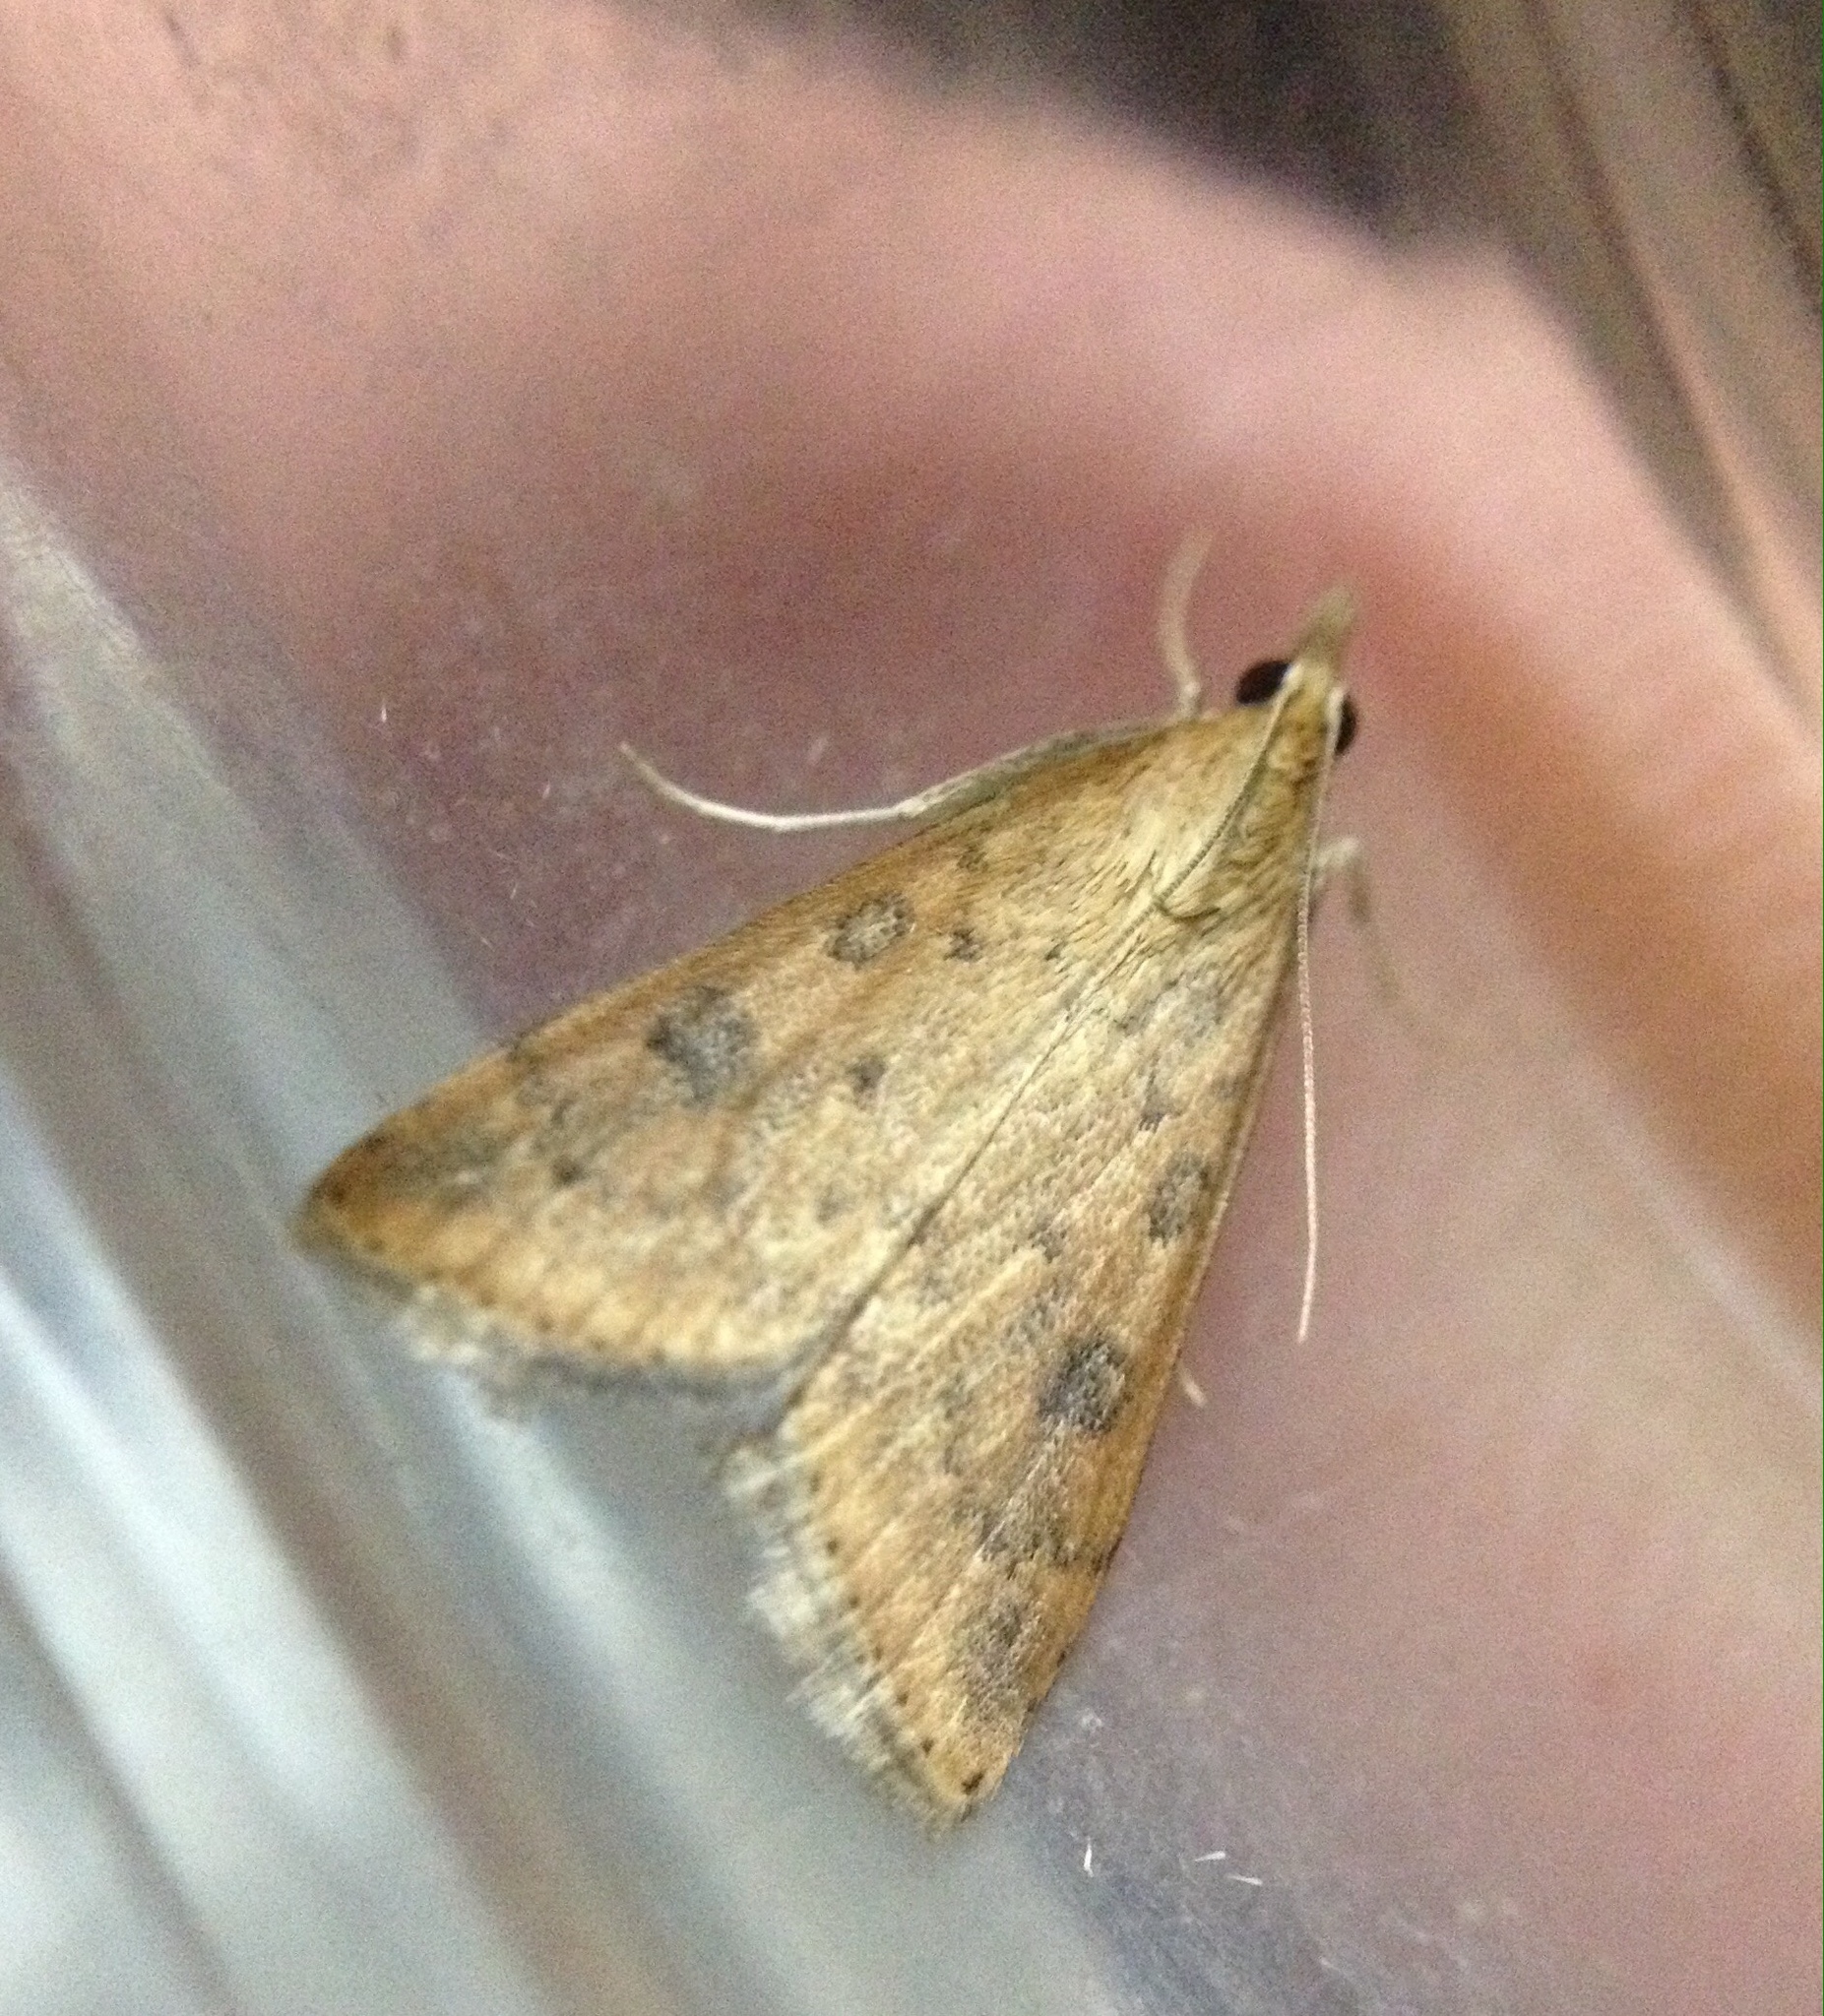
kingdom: Animalia
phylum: Arthropoda
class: Insecta
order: Lepidoptera
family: Crambidae
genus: Udea
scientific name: Udea ferrugalis
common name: Rusty dot
